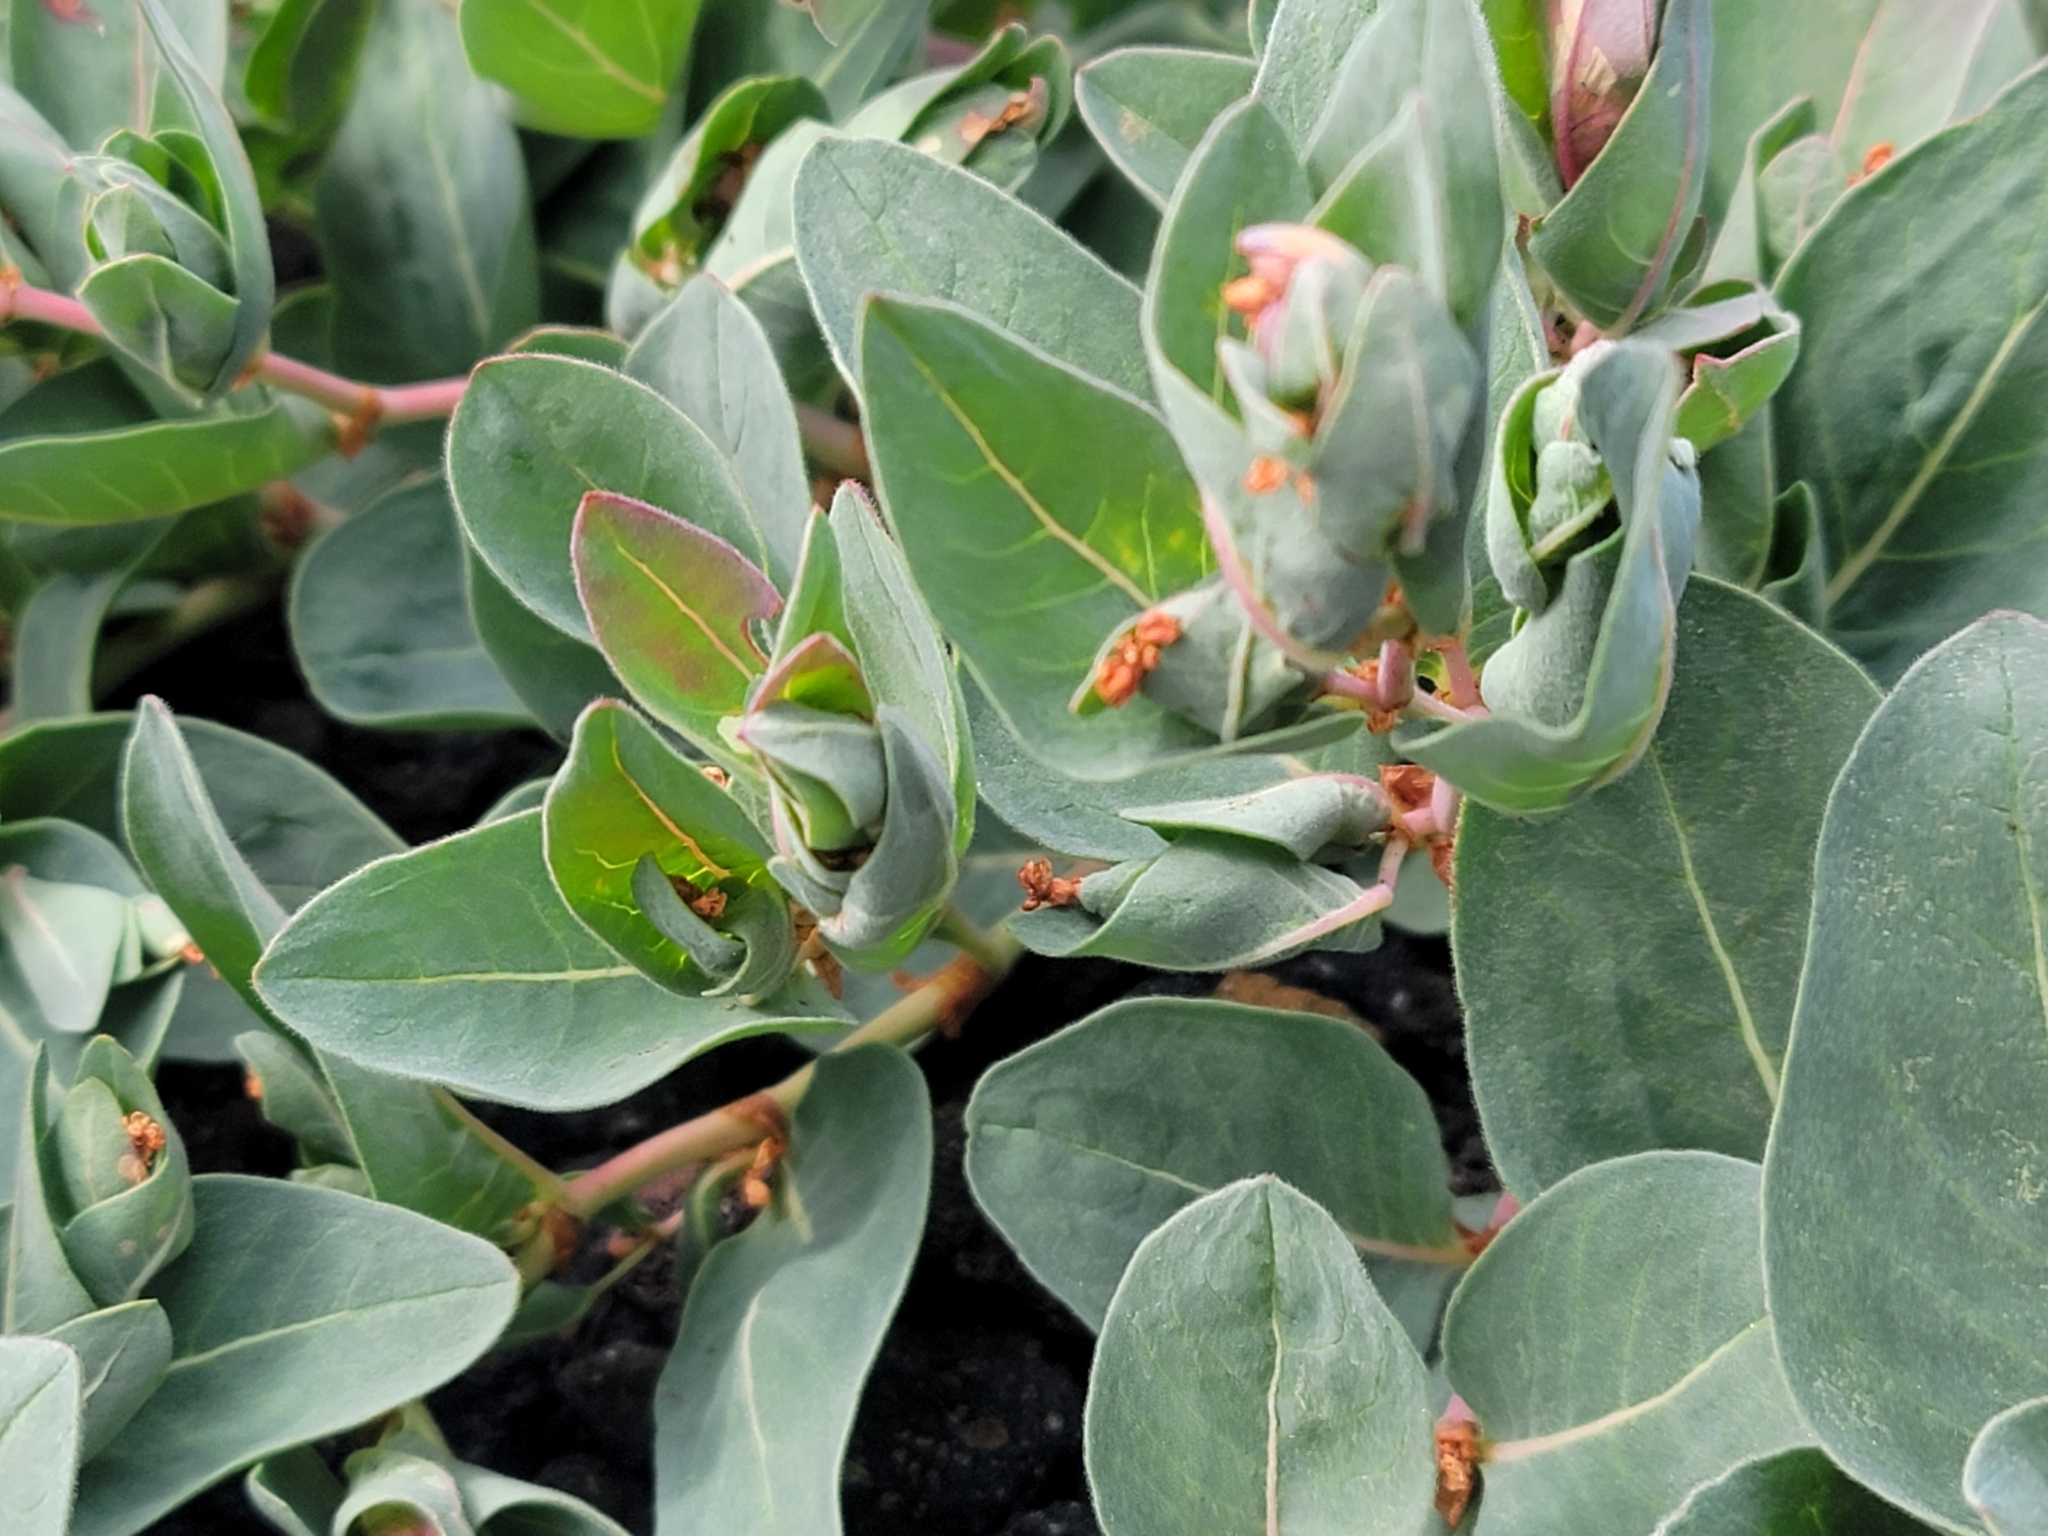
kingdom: Plantae
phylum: Tracheophyta
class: Magnoliopsida
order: Caryophyllales
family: Polygonaceae
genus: Koenigia
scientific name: Koenigia davisiae
